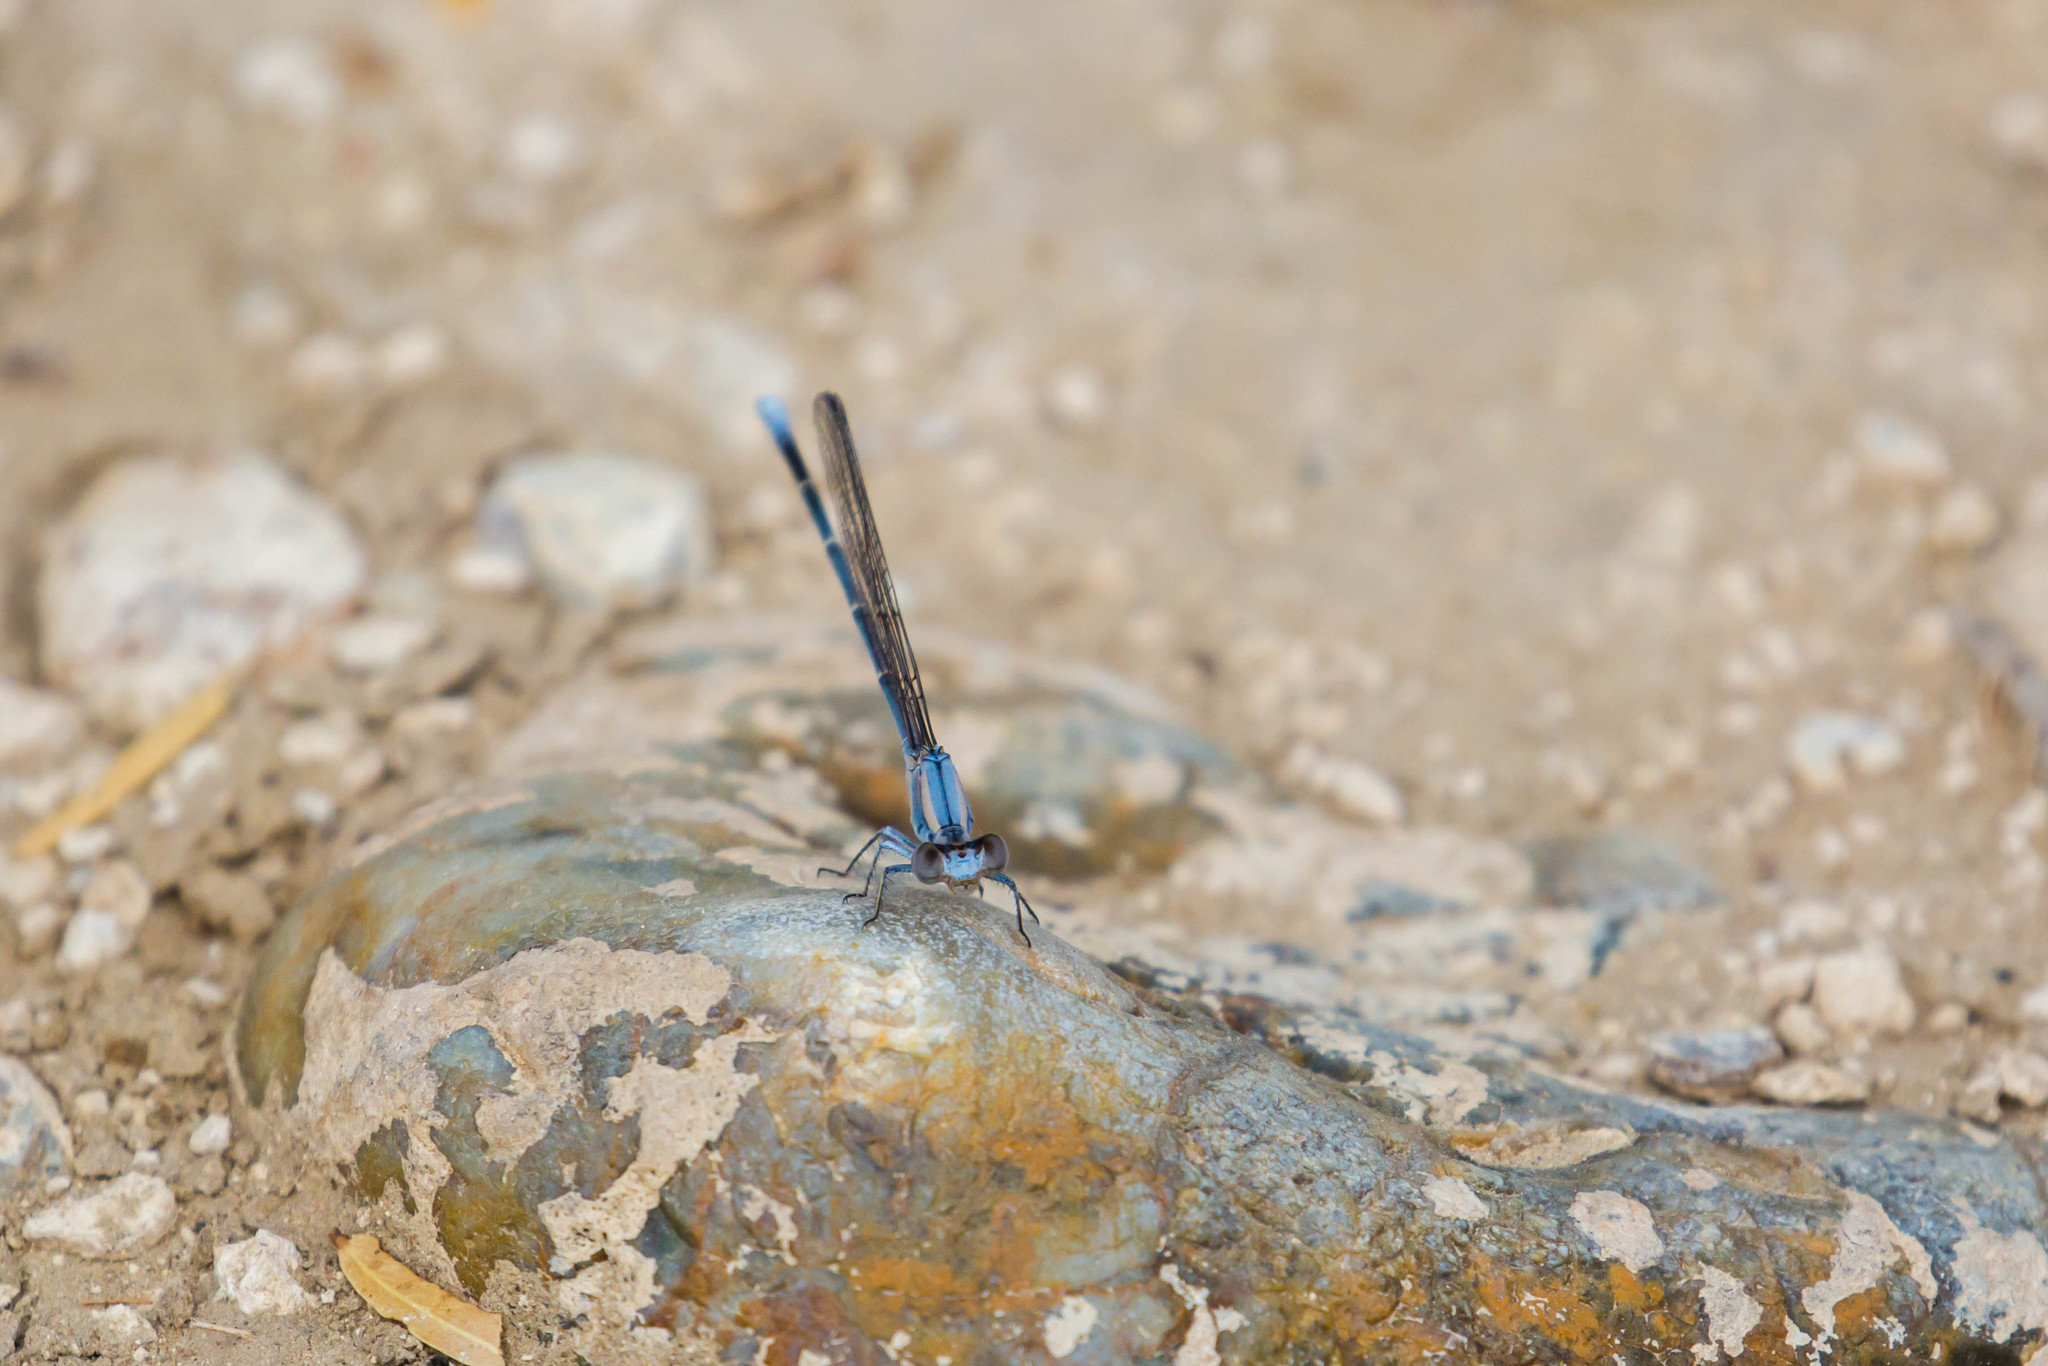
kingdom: Animalia
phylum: Arthropoda
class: Insecta
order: Odonata
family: Coenagrionidae
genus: Argia
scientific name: Argia moesta
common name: Powdered dancer
